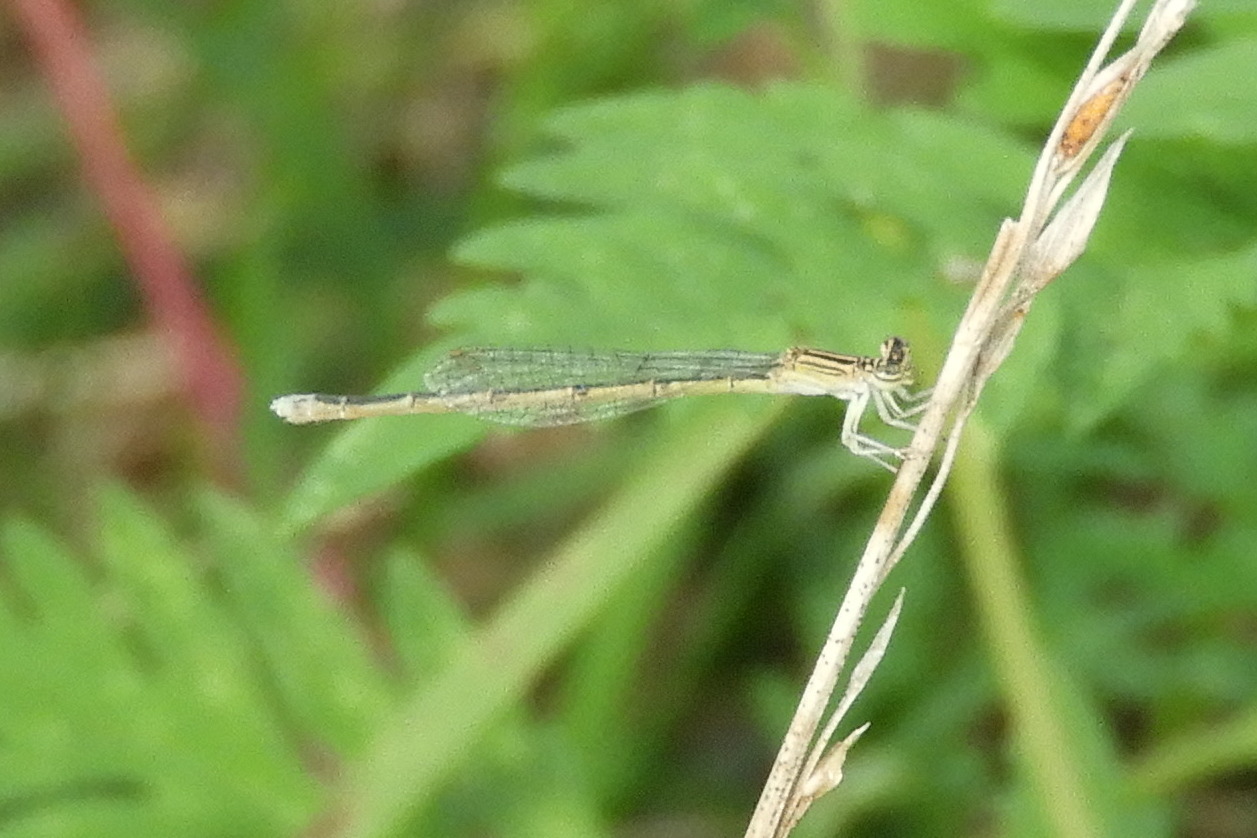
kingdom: Animalia
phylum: Arthropoda
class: Insecta
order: Odonata
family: Coenagrionidae
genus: Enallagma
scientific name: Enallagma basidens
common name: Double-striped bluet
